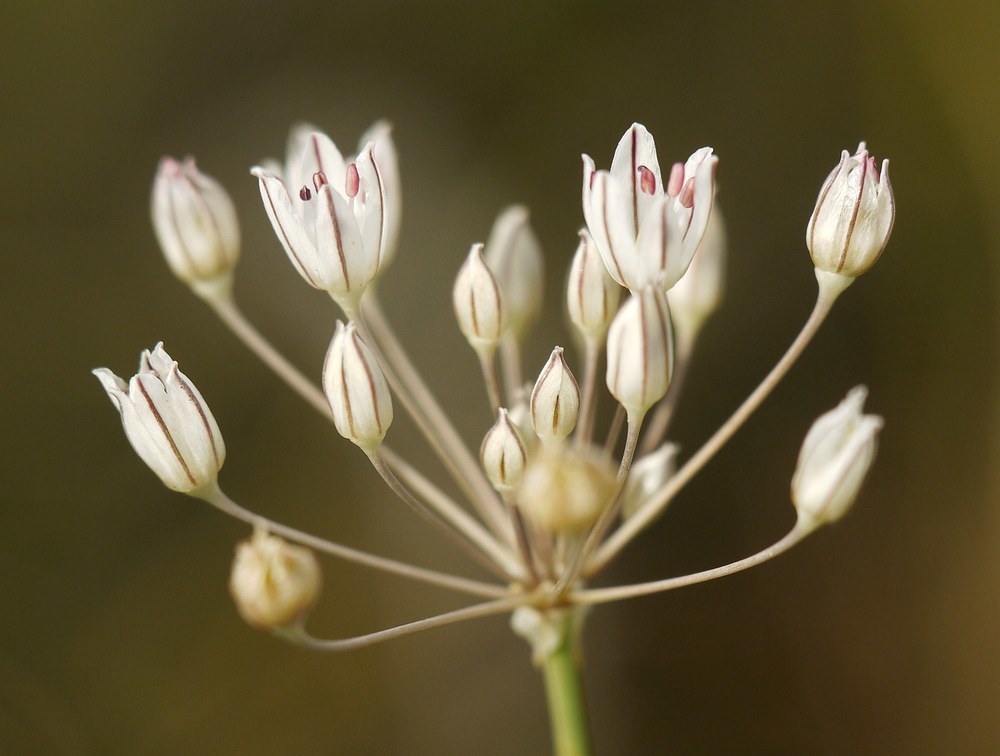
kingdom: Plantae
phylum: Tracheophyta
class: Liliopsida
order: Asparagales
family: Amaryllidaceae
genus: Allium
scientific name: Allium inaequale
